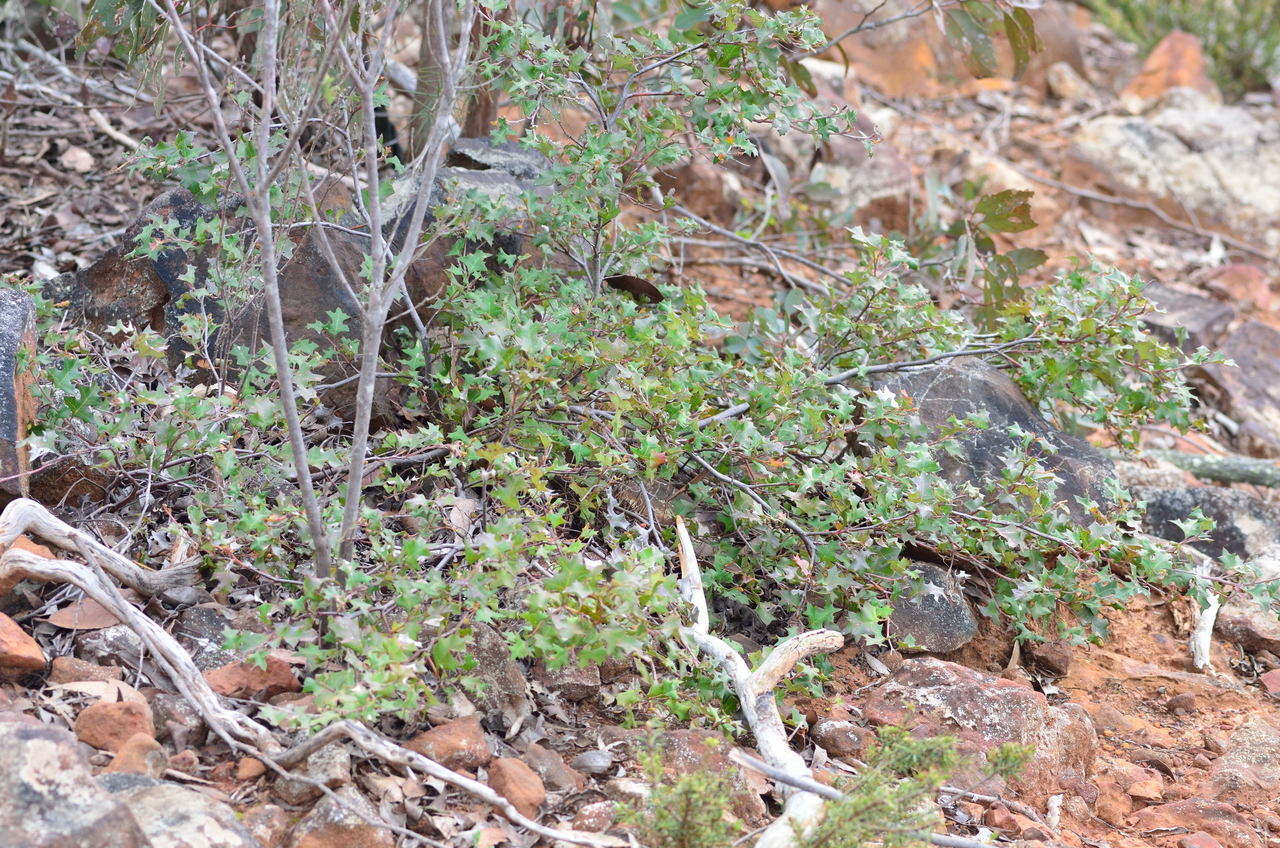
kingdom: Plantae
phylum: Tracheophyta
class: Magnoliopsida
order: Proteales
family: Proteaceae
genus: Grevillea
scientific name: Grevillea steiglitziana
